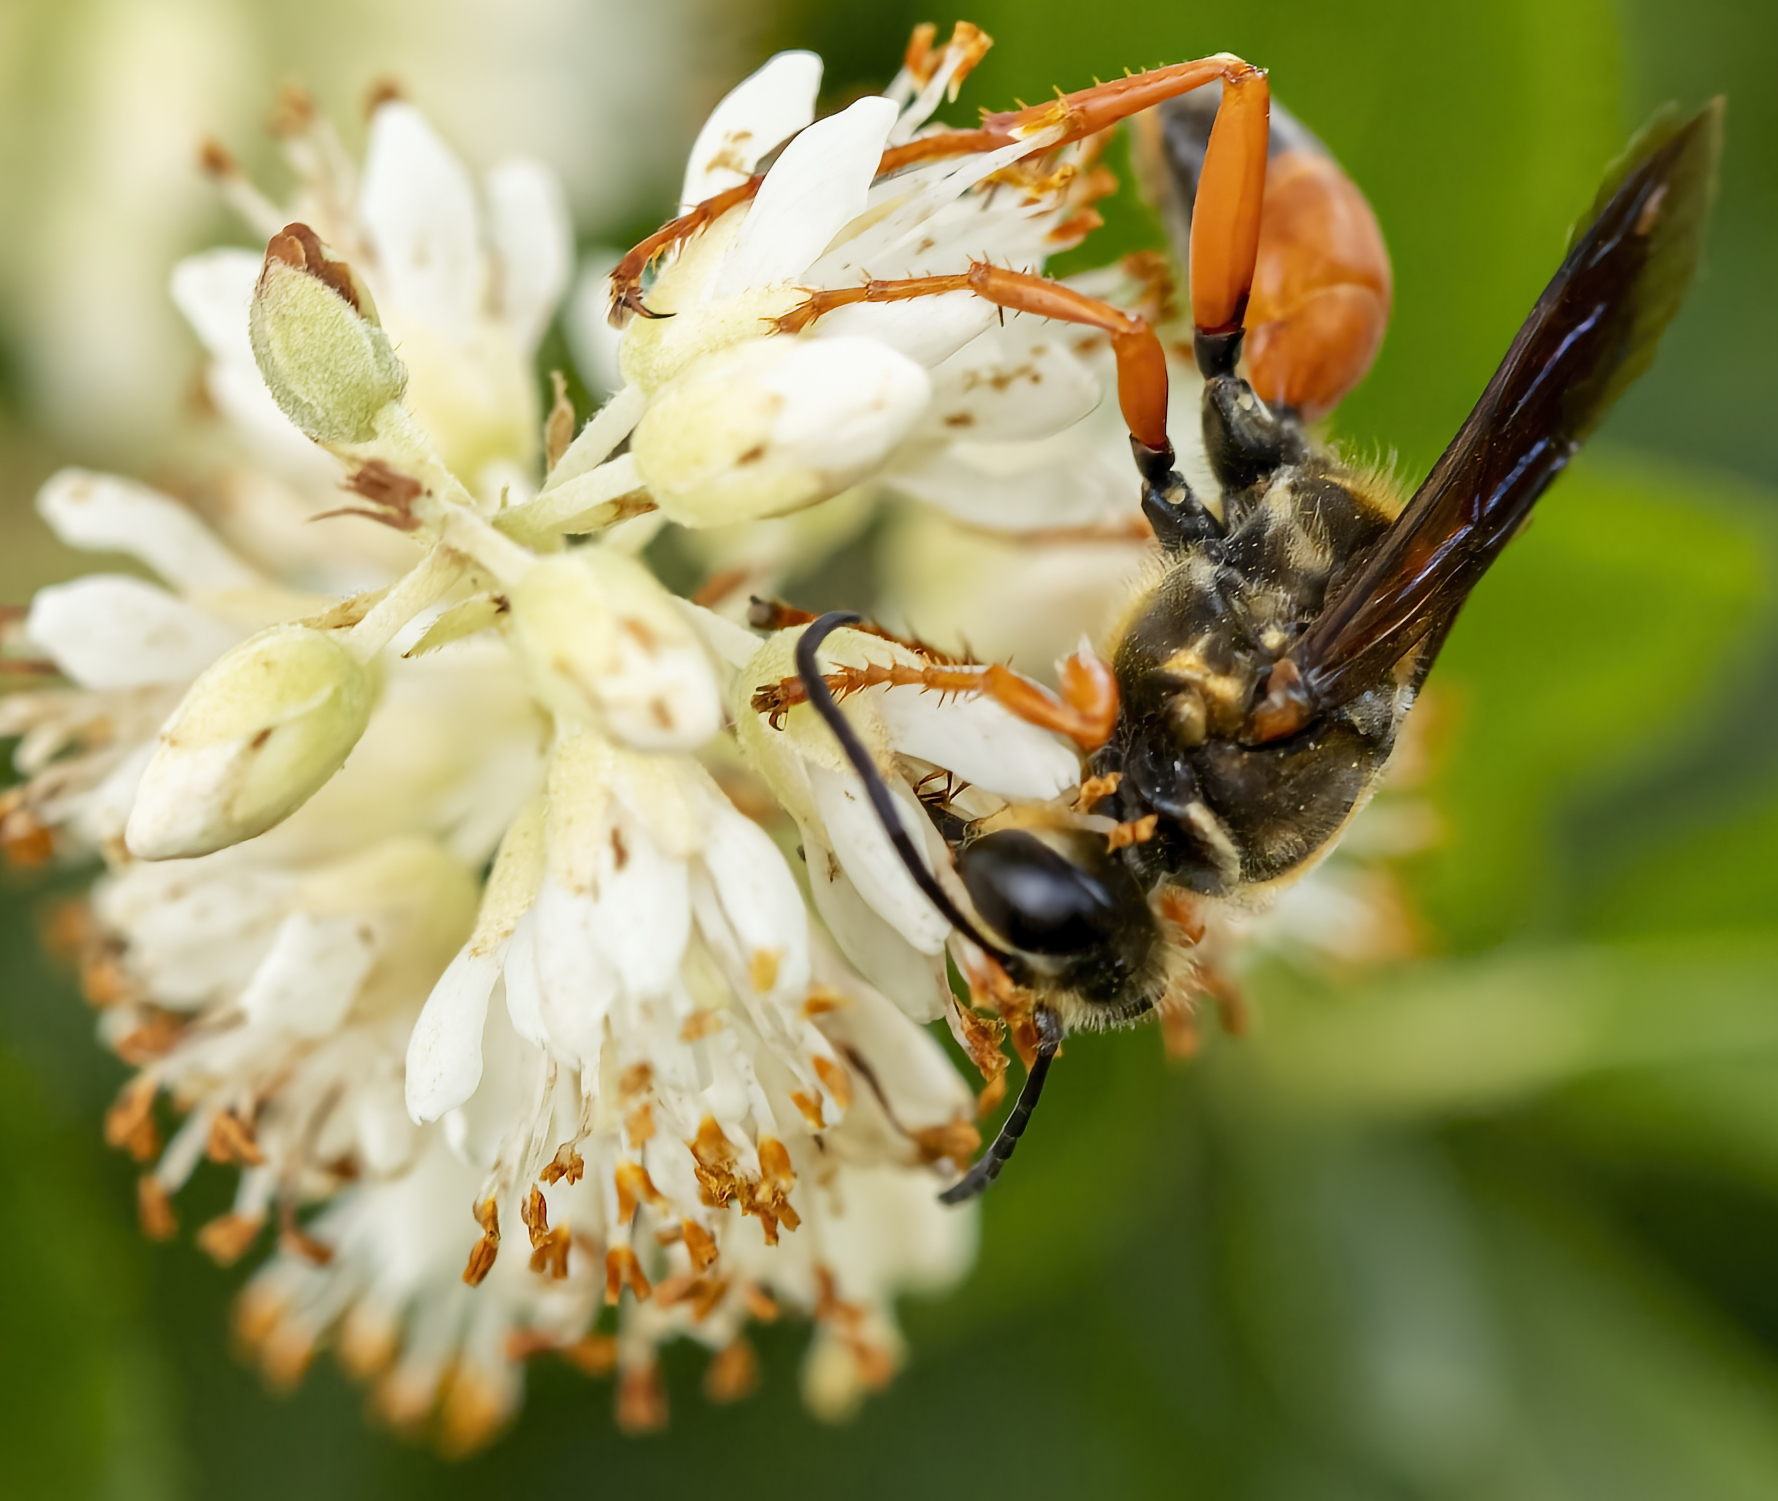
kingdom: Animalia
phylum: Arthropoda
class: Insecta
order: Hymenoptera
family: Sphecidae
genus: Sphex
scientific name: Sphex ichneumoneus
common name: Great golden digger wasp
